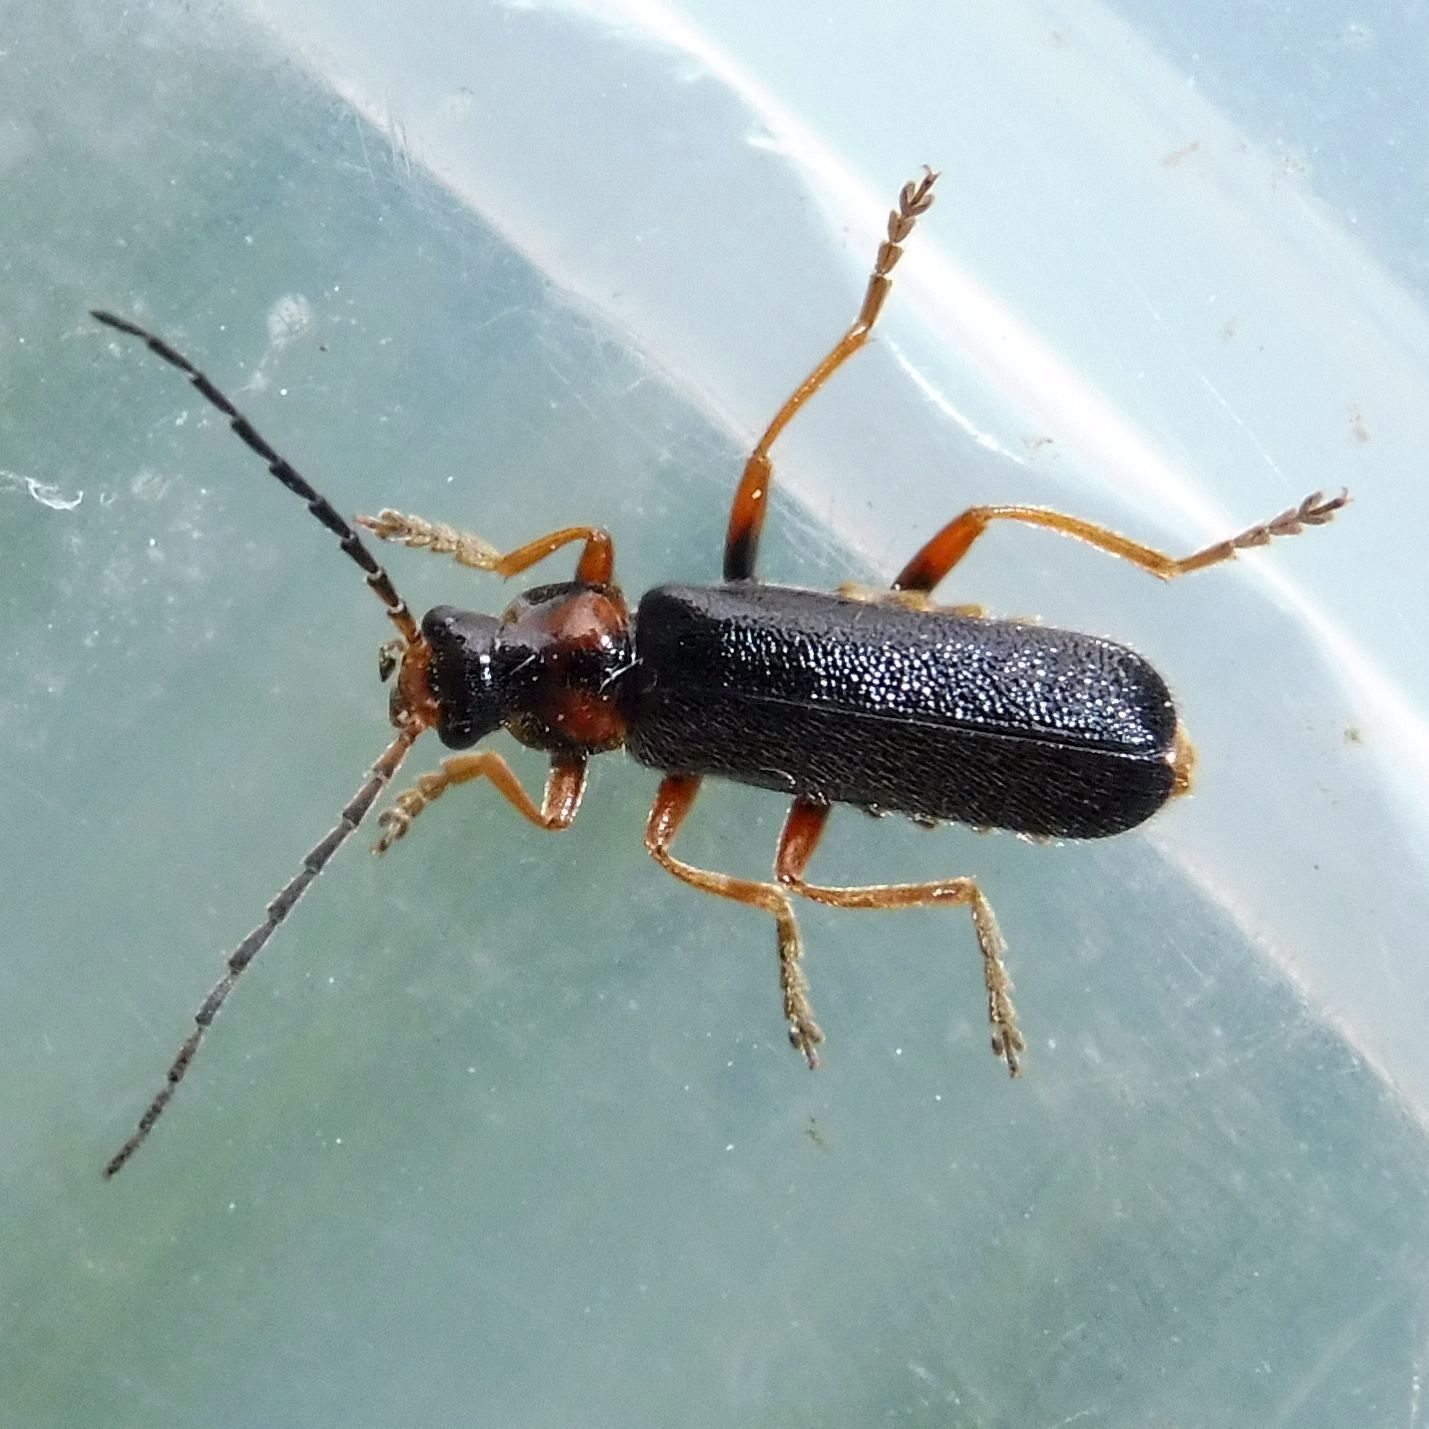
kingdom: Animalia
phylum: Arthropoda
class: Insecta
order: Coleoptera
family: Cantharidae
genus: Cantharis
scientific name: Cantharis flavilabris
